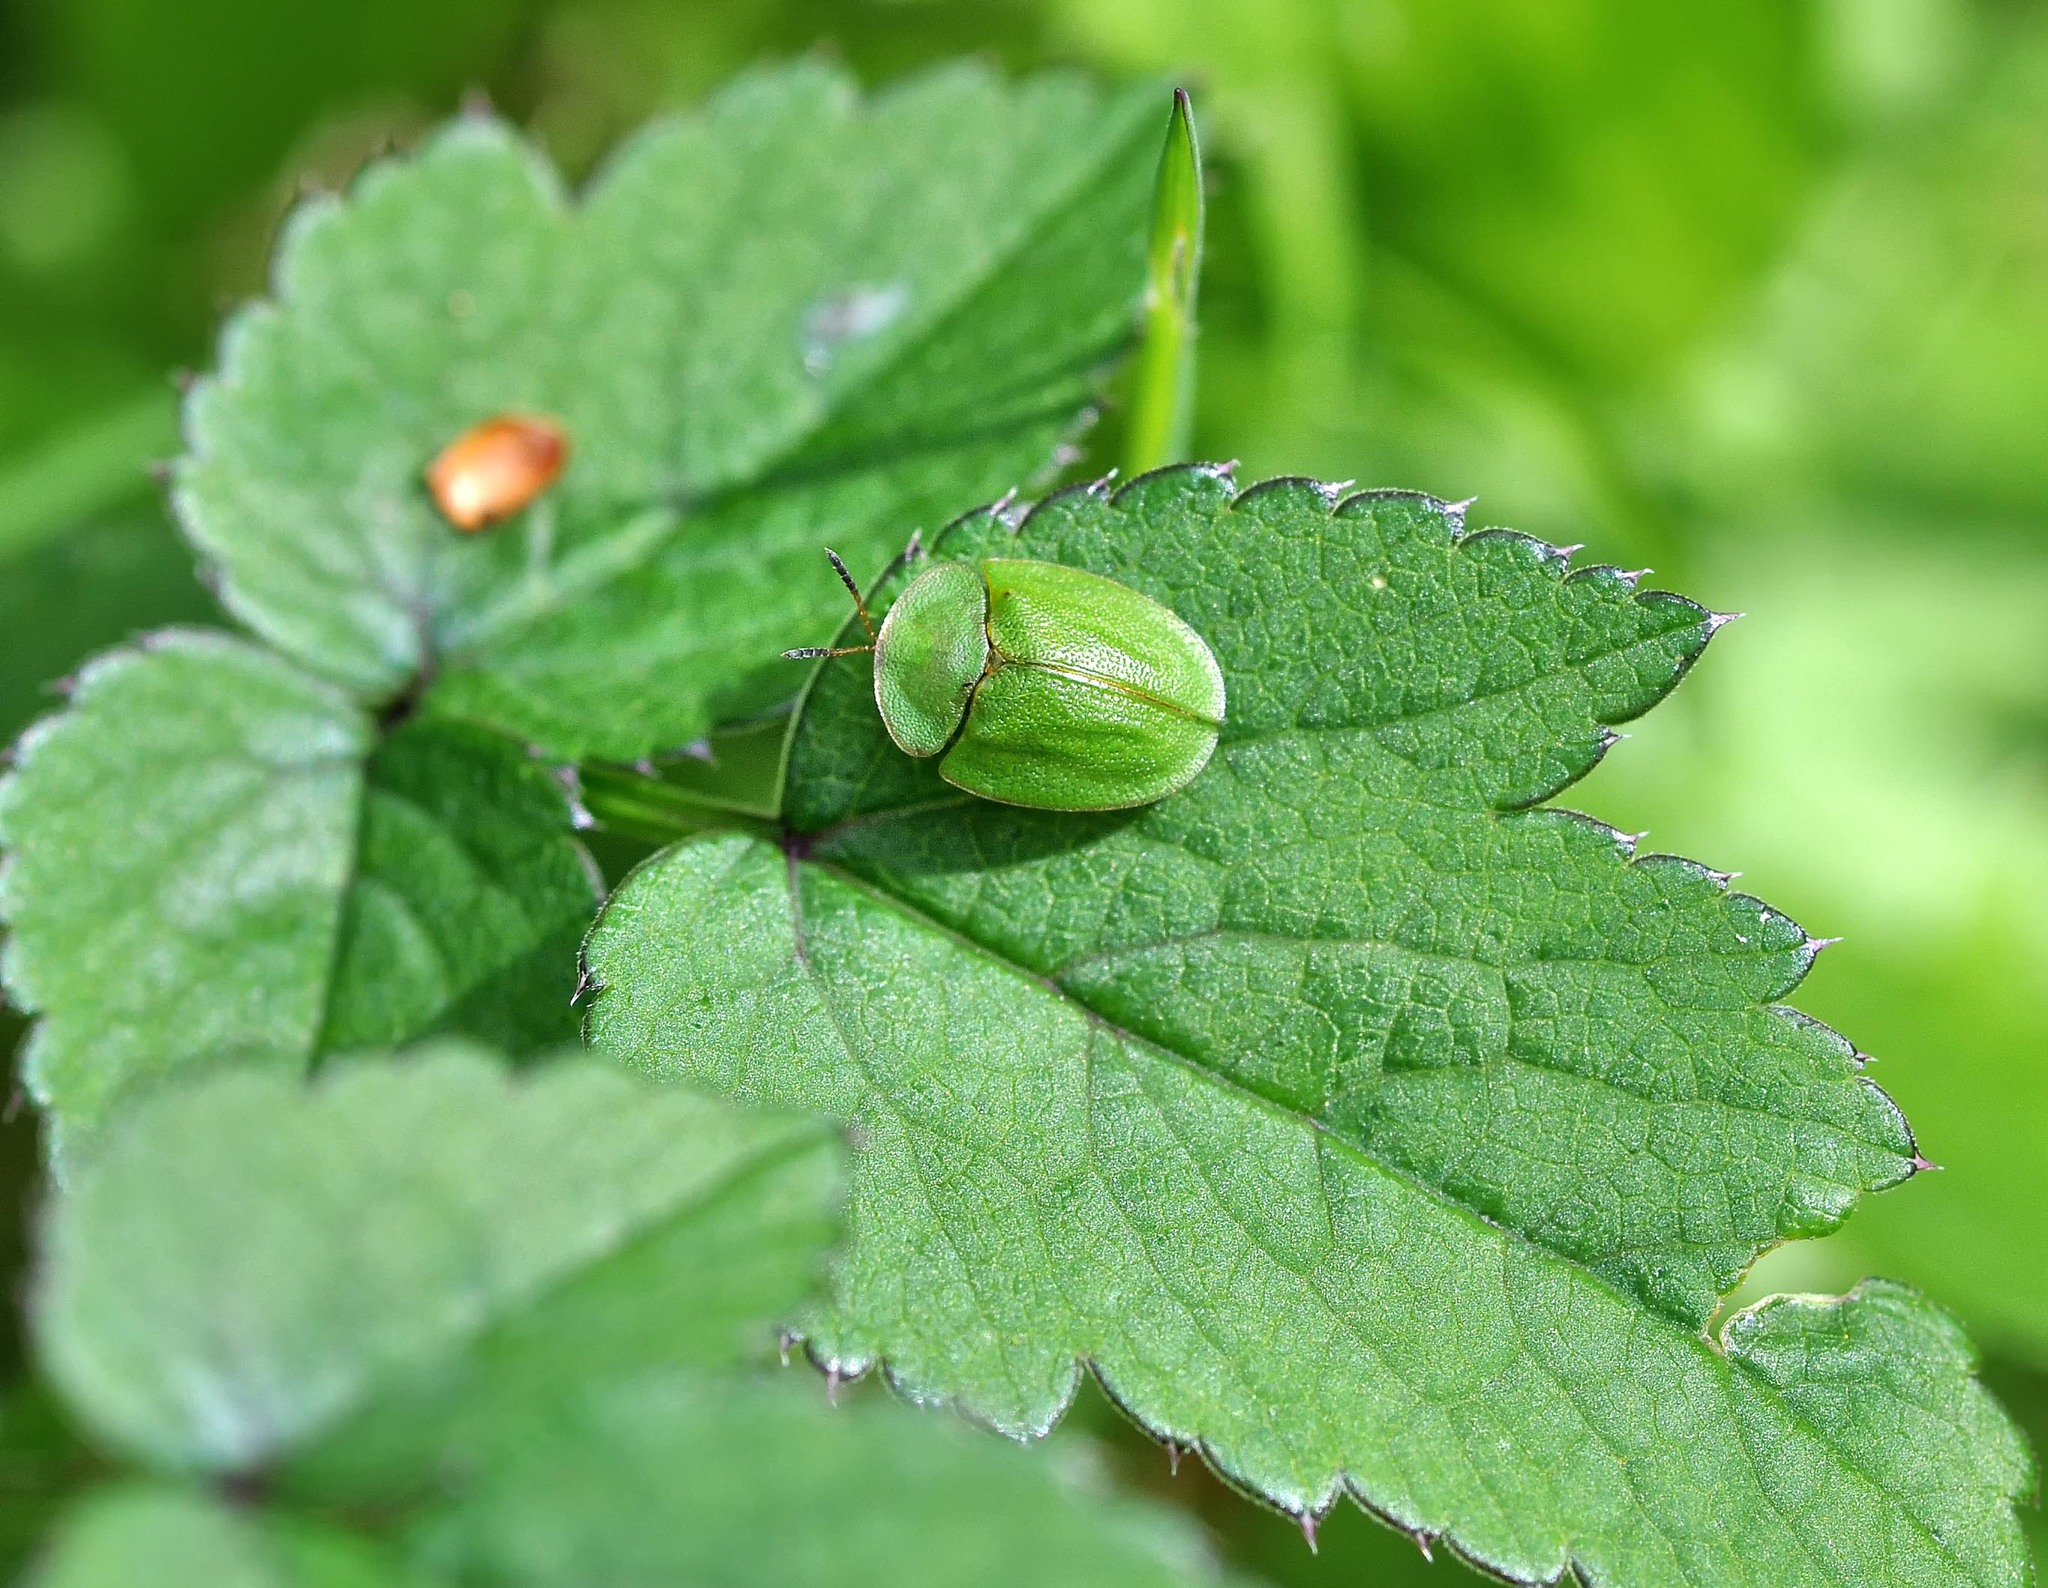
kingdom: Animalia
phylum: Arthropoda
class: Insecta
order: Coleoptera
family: Chrysomelidae
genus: Cassida
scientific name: Cassida viridis
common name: Green tortoise beetle
